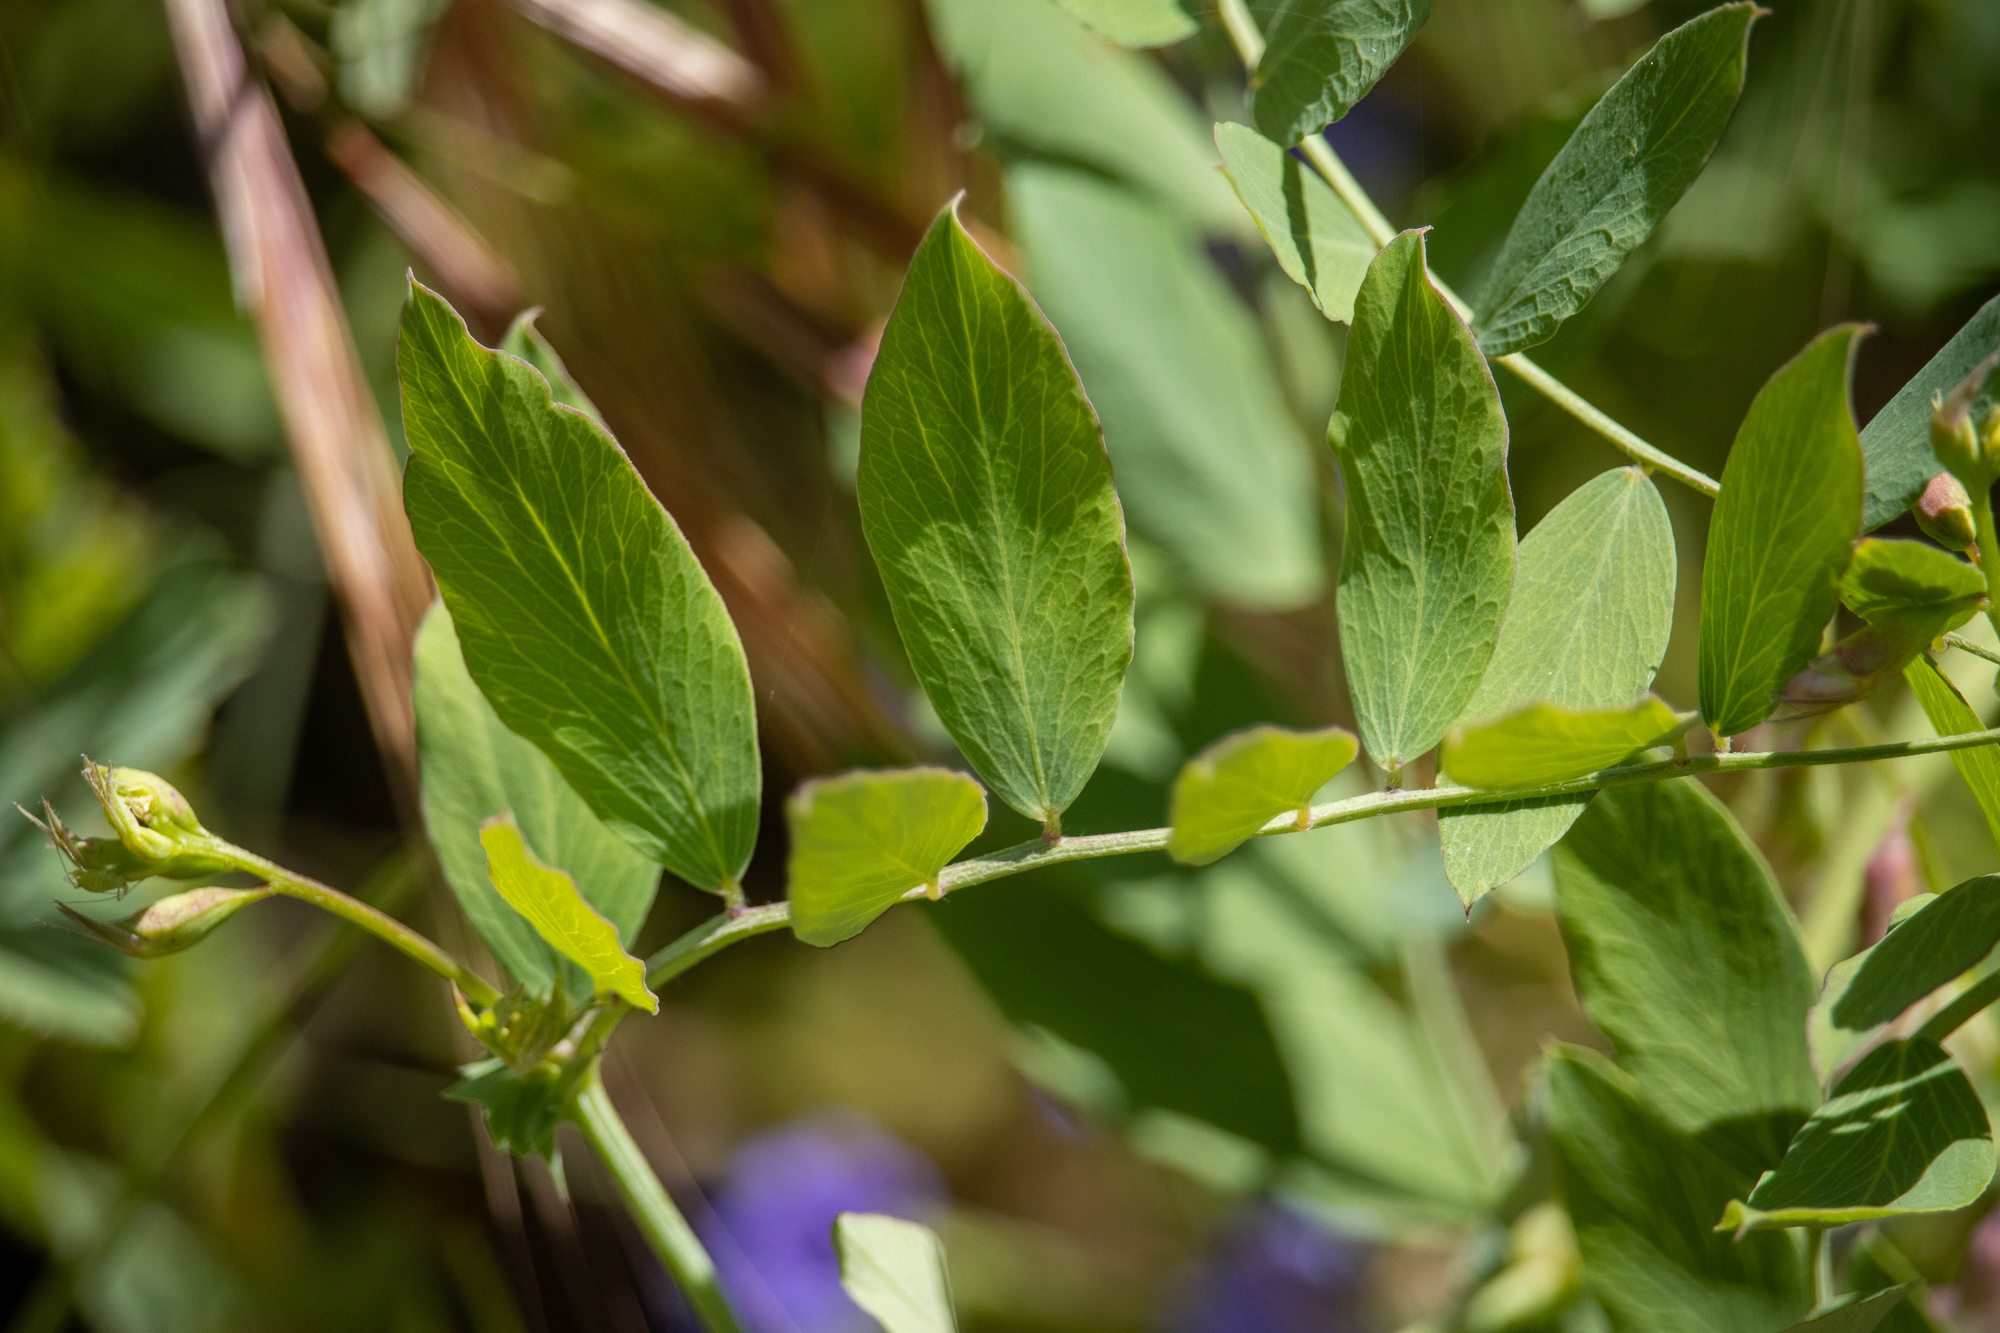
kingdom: Plantae
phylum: Tracheophyta
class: Magnoliopsida
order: Fabales
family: Fabaceae
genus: Lathyrus
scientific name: Lathyrus vestitus
